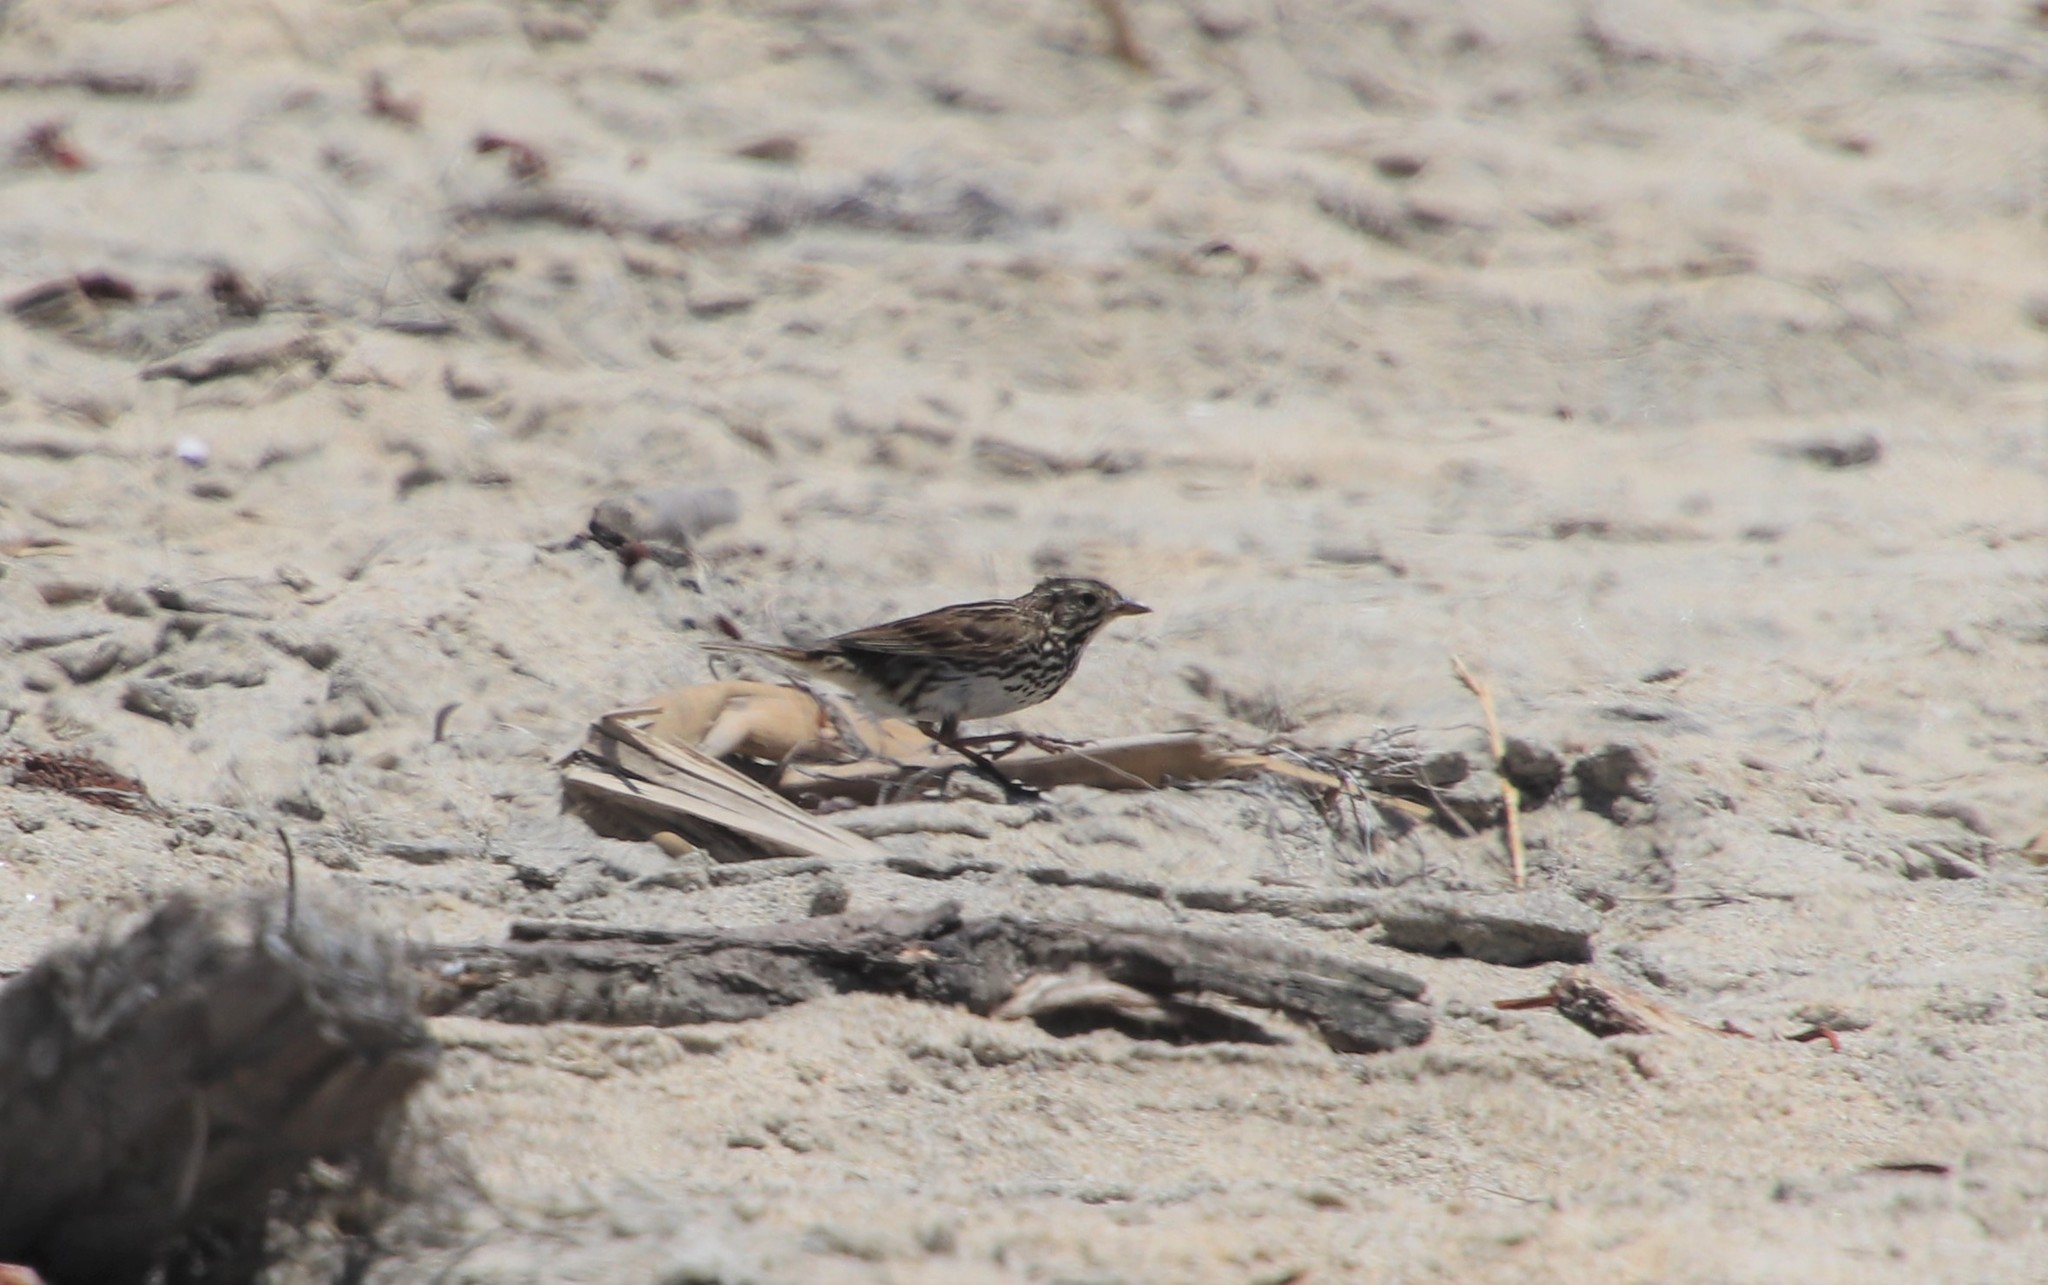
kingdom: Animalia
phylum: Chordata
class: Aves
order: Passeriformes
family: Passerellidae
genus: Passerculus
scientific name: Passerculus sandwichensis
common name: Savannah sparrow
